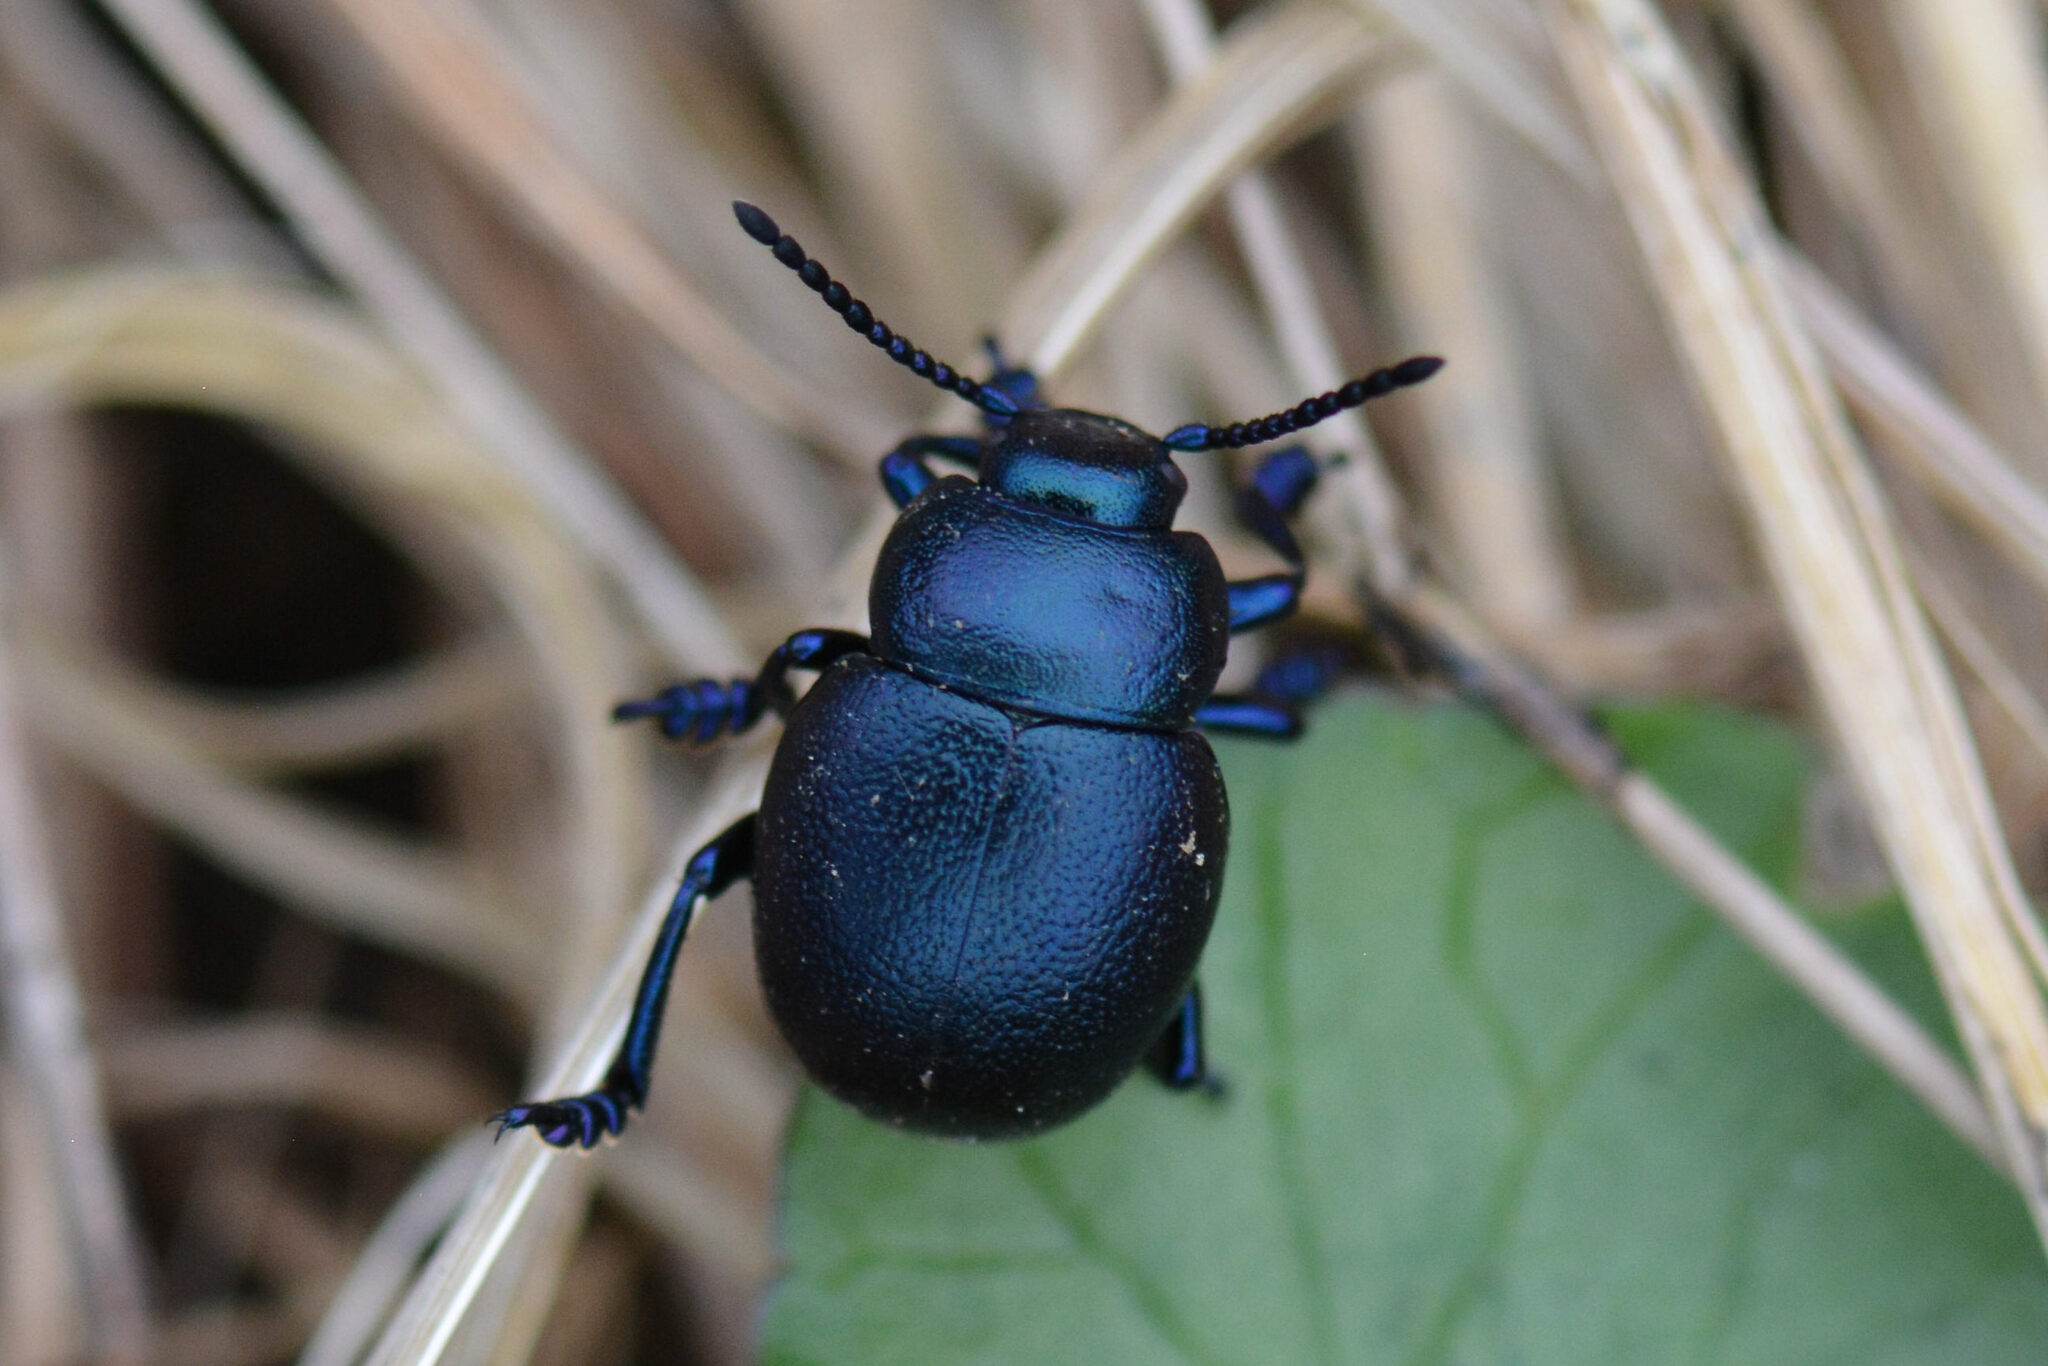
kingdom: Animalia
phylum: Arthropoda
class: Insecta
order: Coleoptera
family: Chrysomelidae
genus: Timarcha
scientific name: Timarcha goettingensis
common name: Small bloody-nosed beetle
